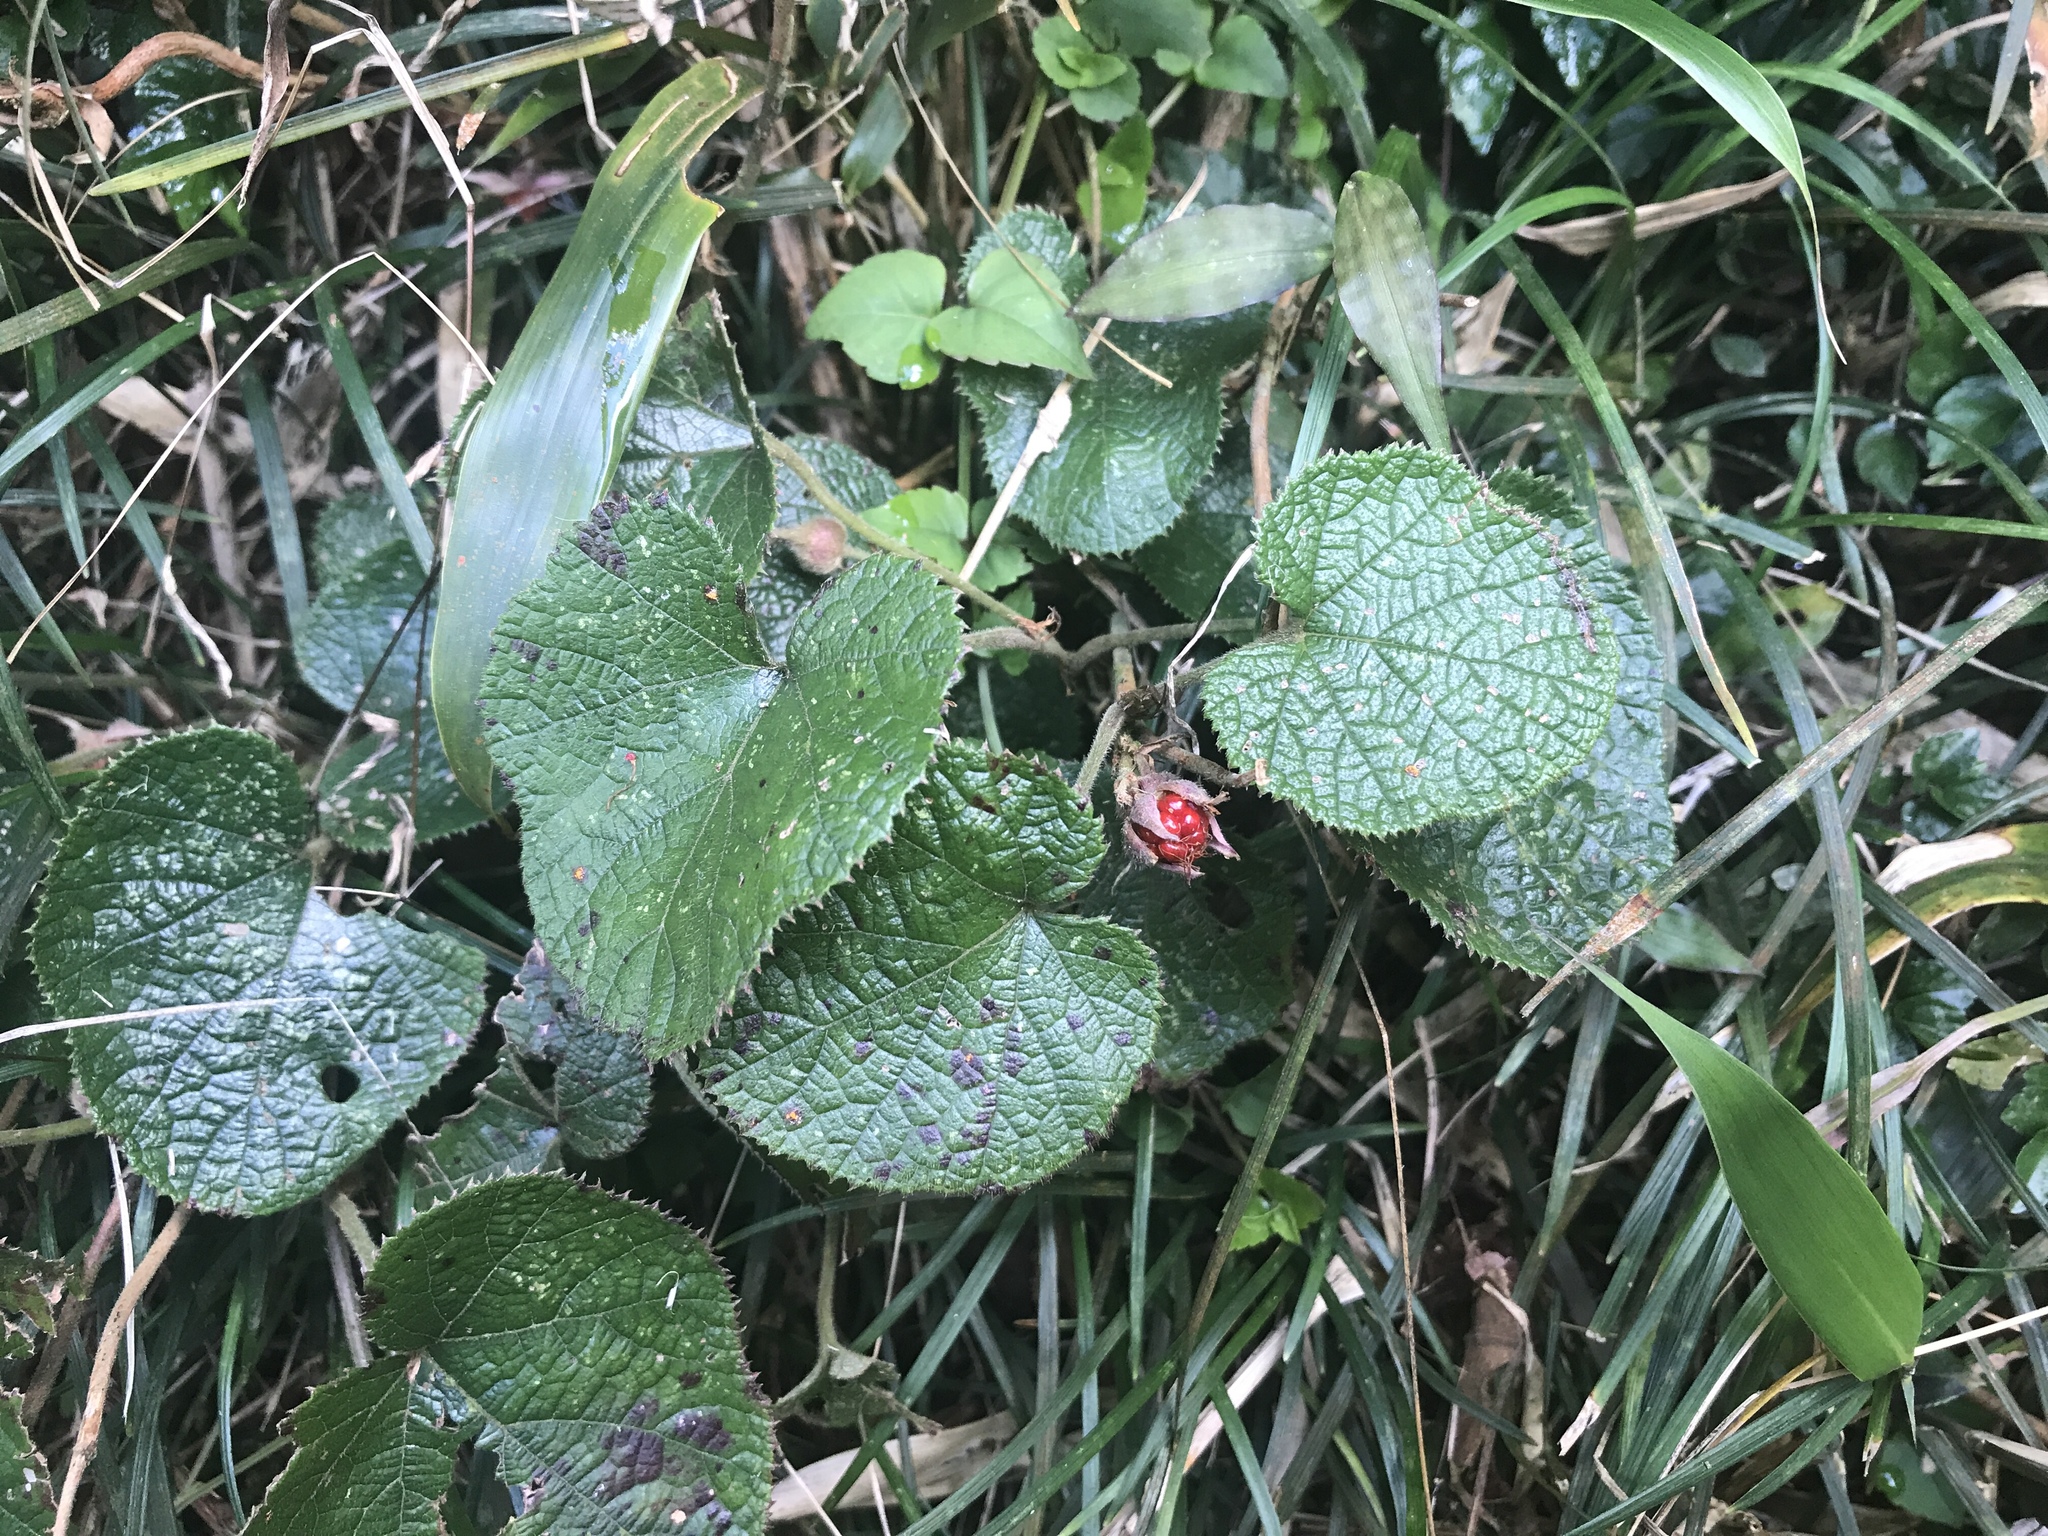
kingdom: Plantae
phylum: Tracheophyta
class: Magnoliopsida
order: Rosales
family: Rosaceae
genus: Rubus
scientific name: Rubus buergeri
